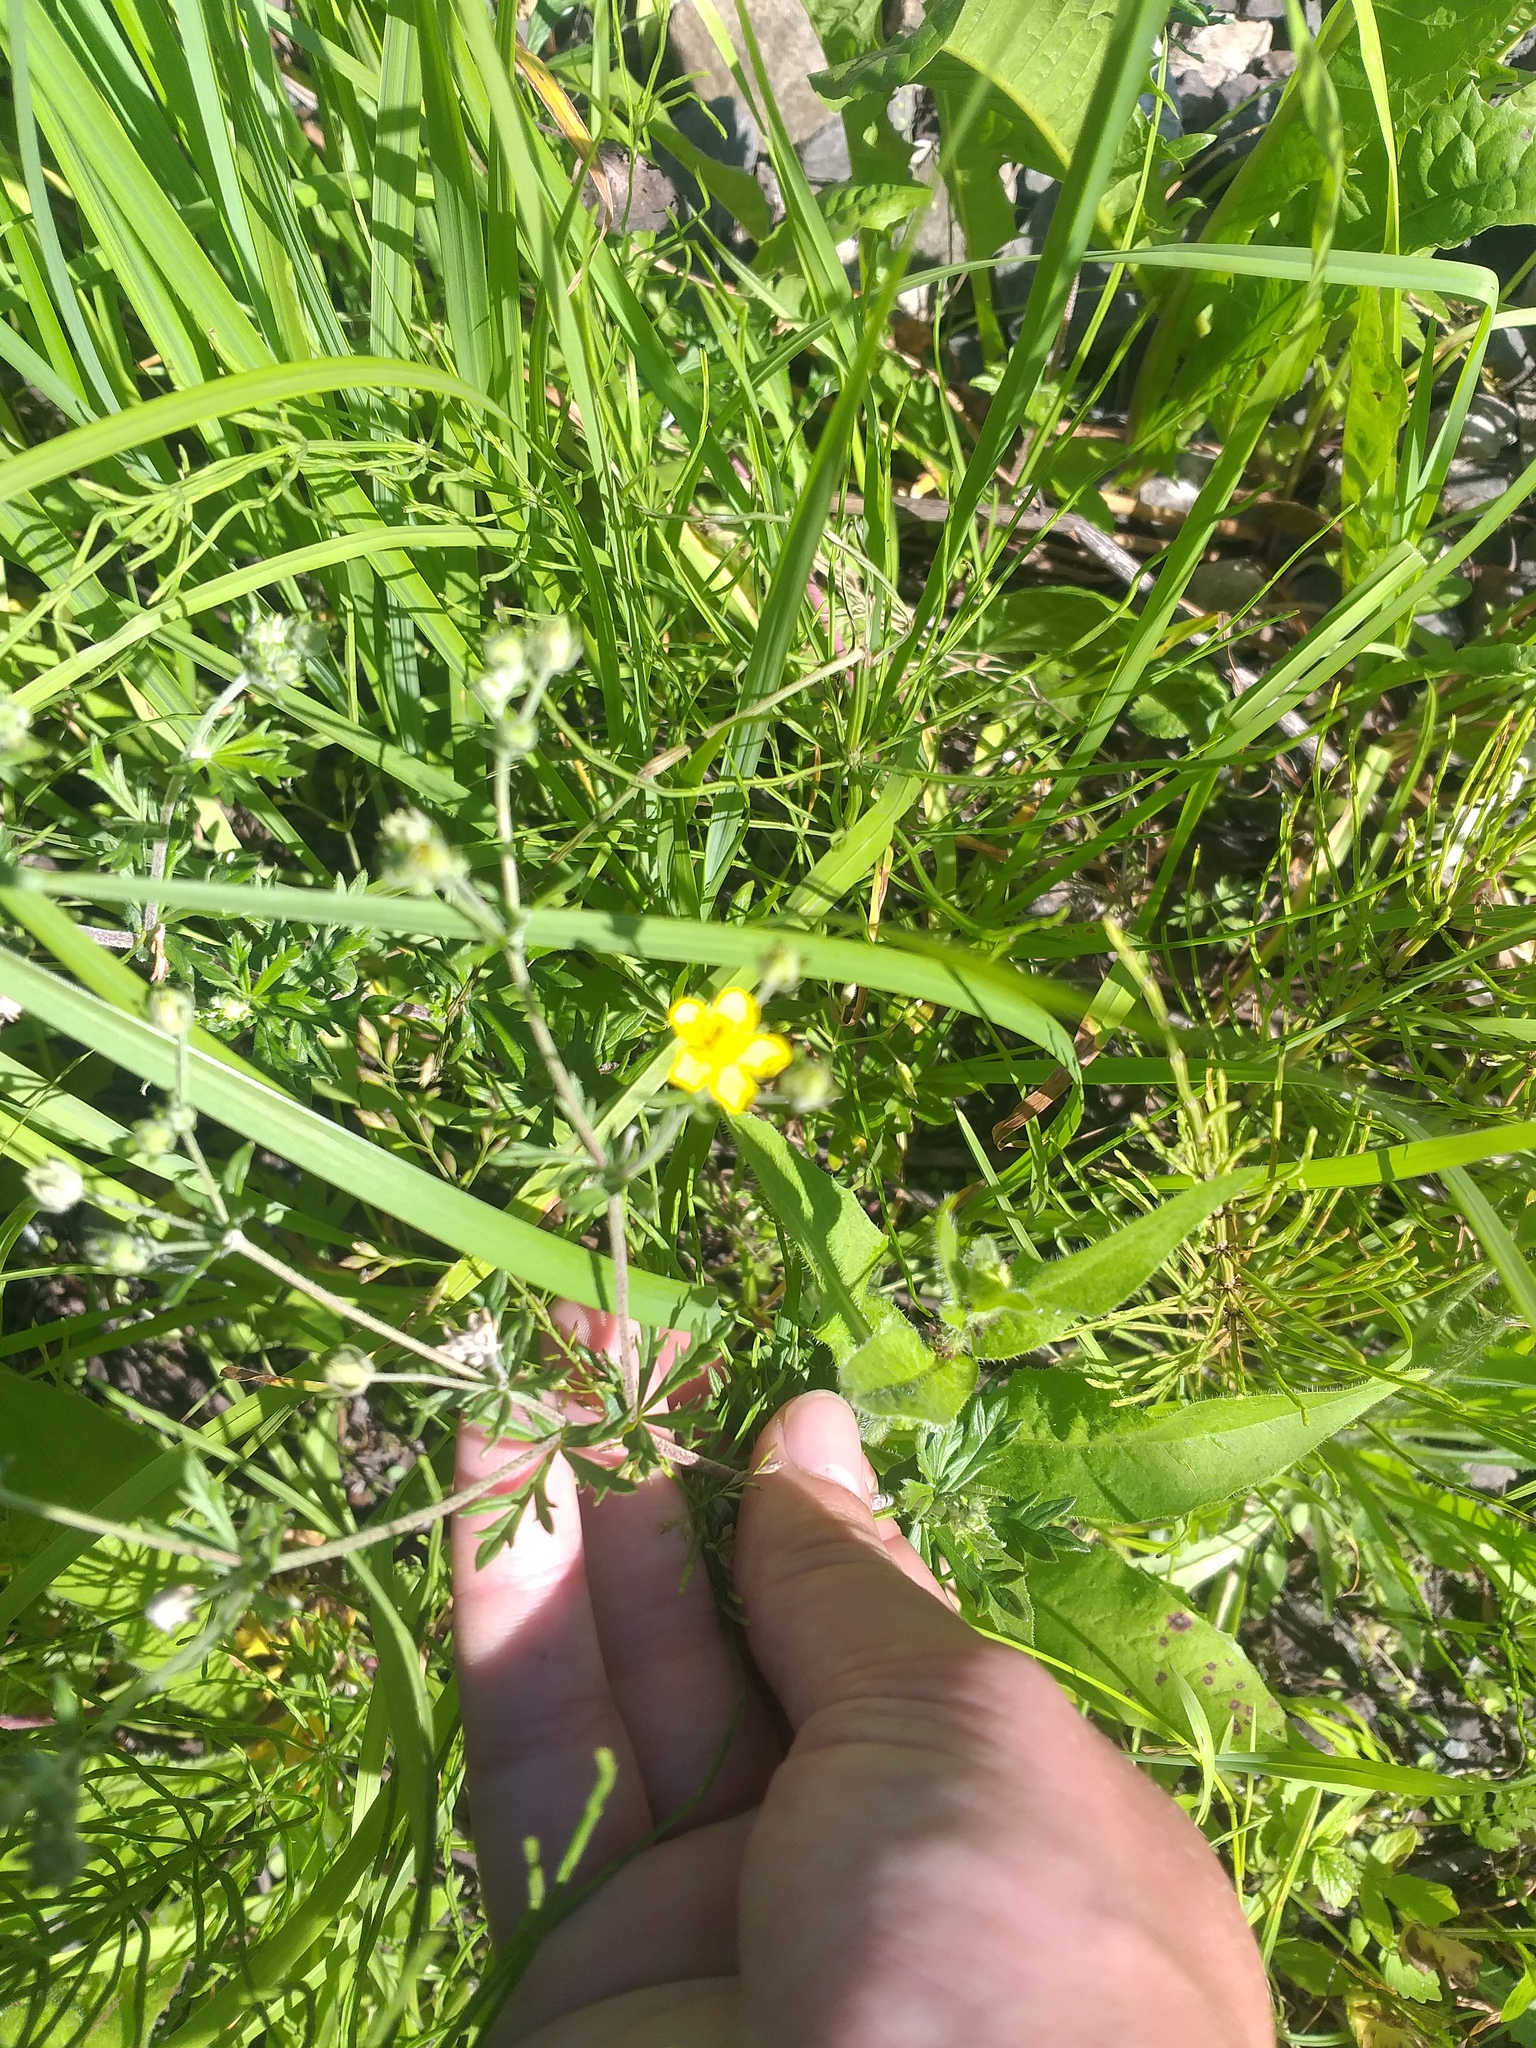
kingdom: Plantae
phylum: Tracheophyta
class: Magnoliopsida
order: Rosales
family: Rosaceae
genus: Potentilla
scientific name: Potentilla argentea
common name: Hoary cinquefoil
